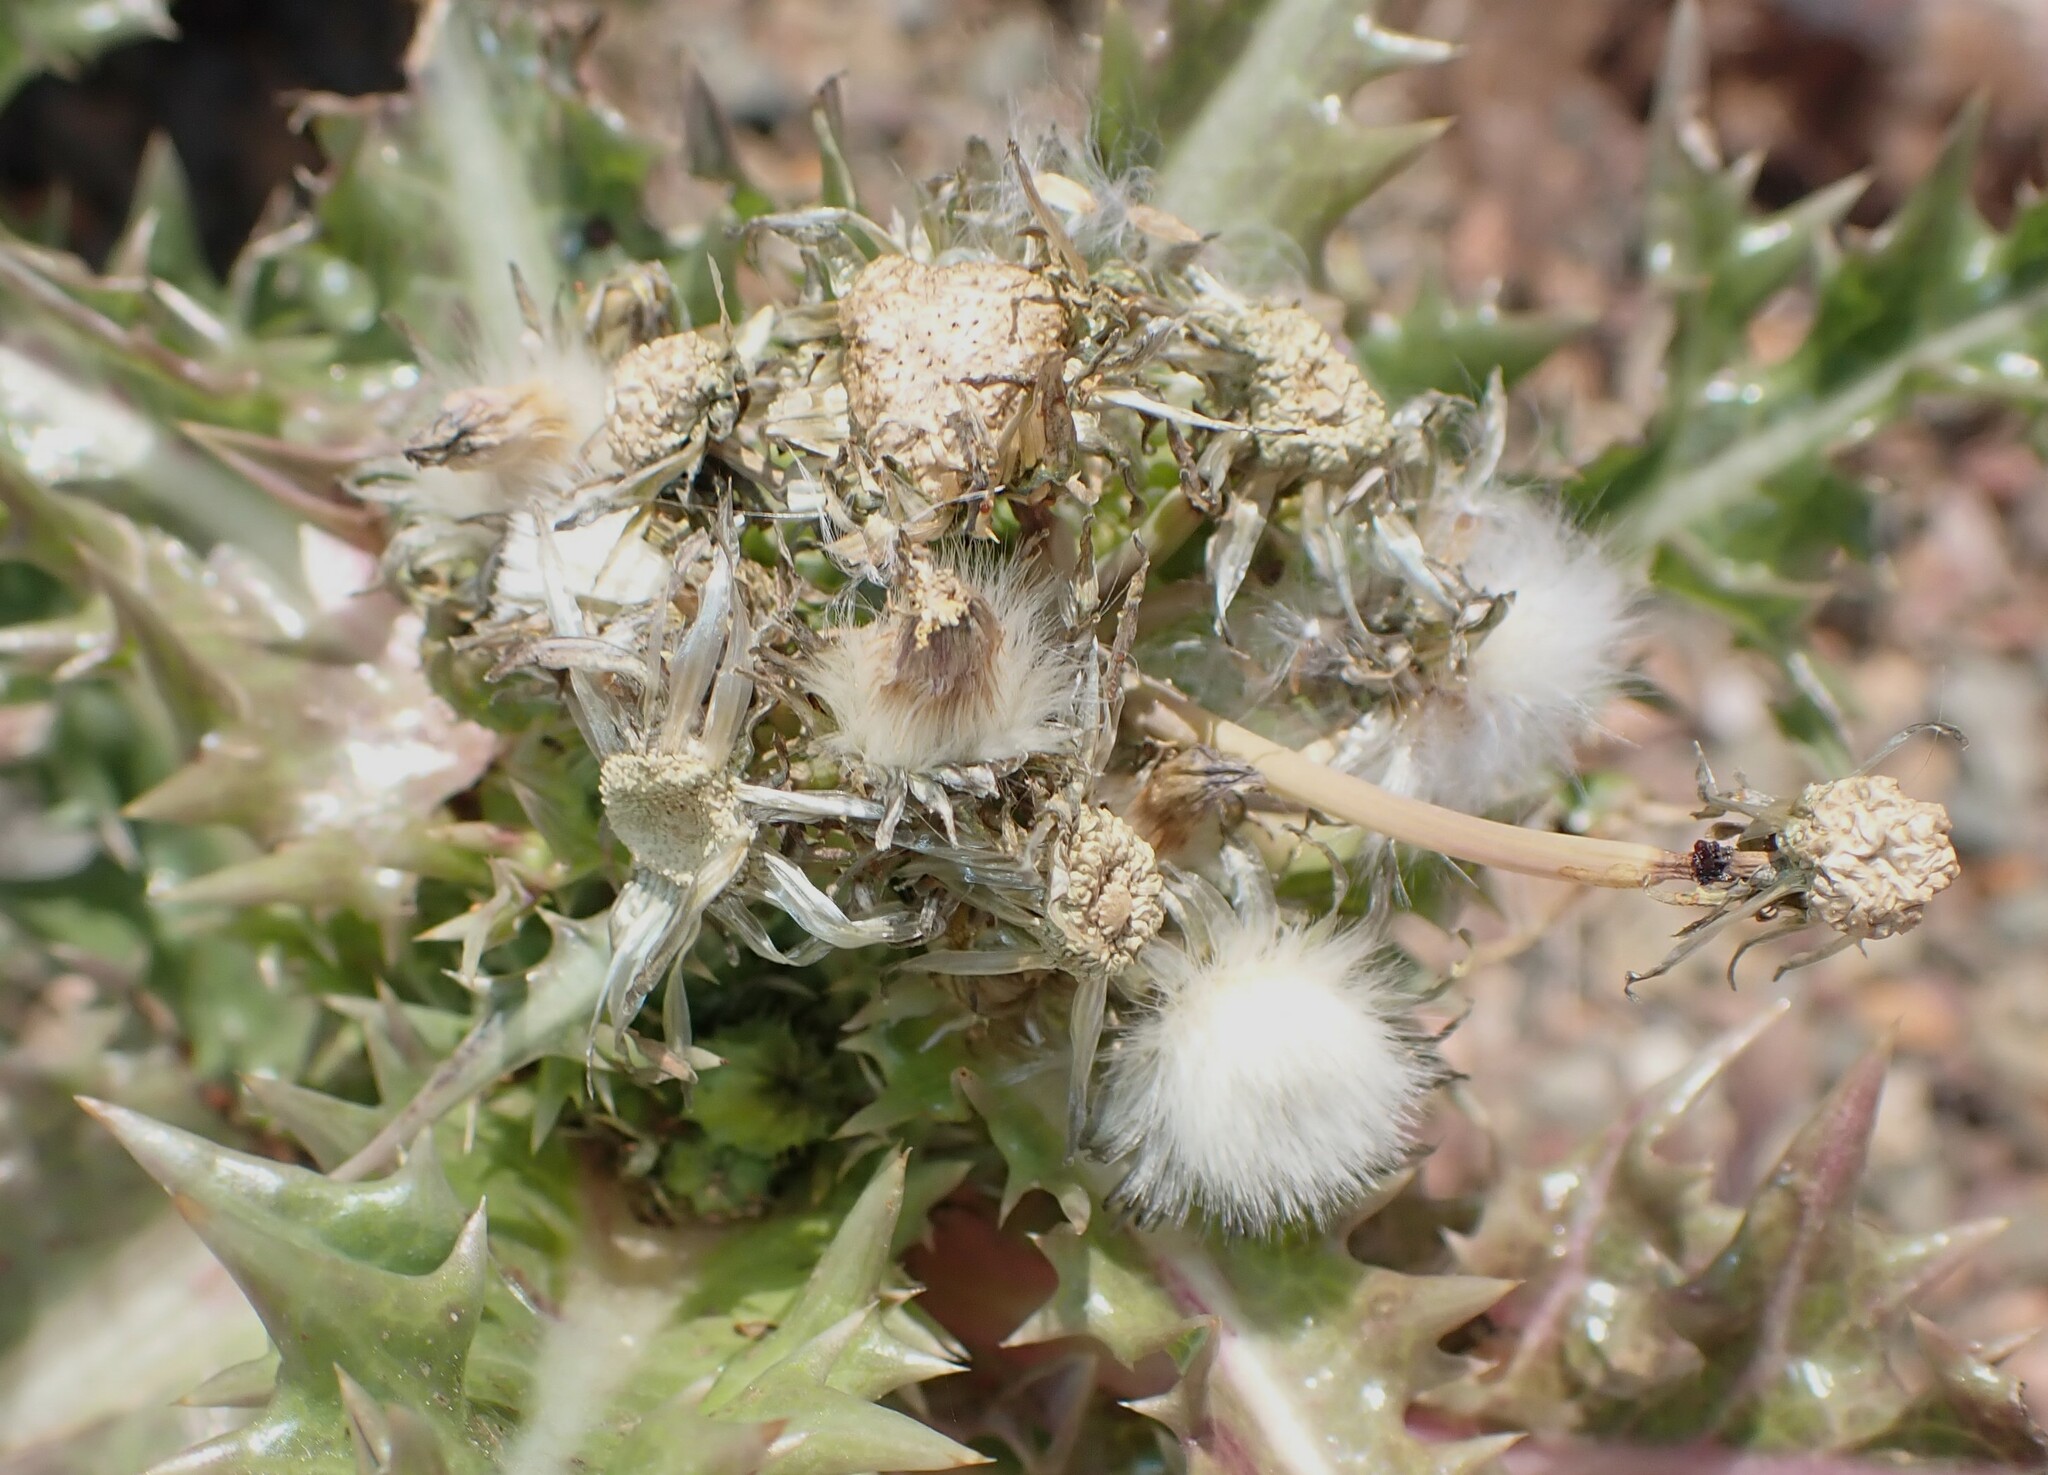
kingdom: Plantae
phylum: Tracheophyta
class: Magnoliopsida
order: Asterales
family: Asteraceae
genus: Sonchus
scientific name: Sonchus asper
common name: Prickly sow-thistle
